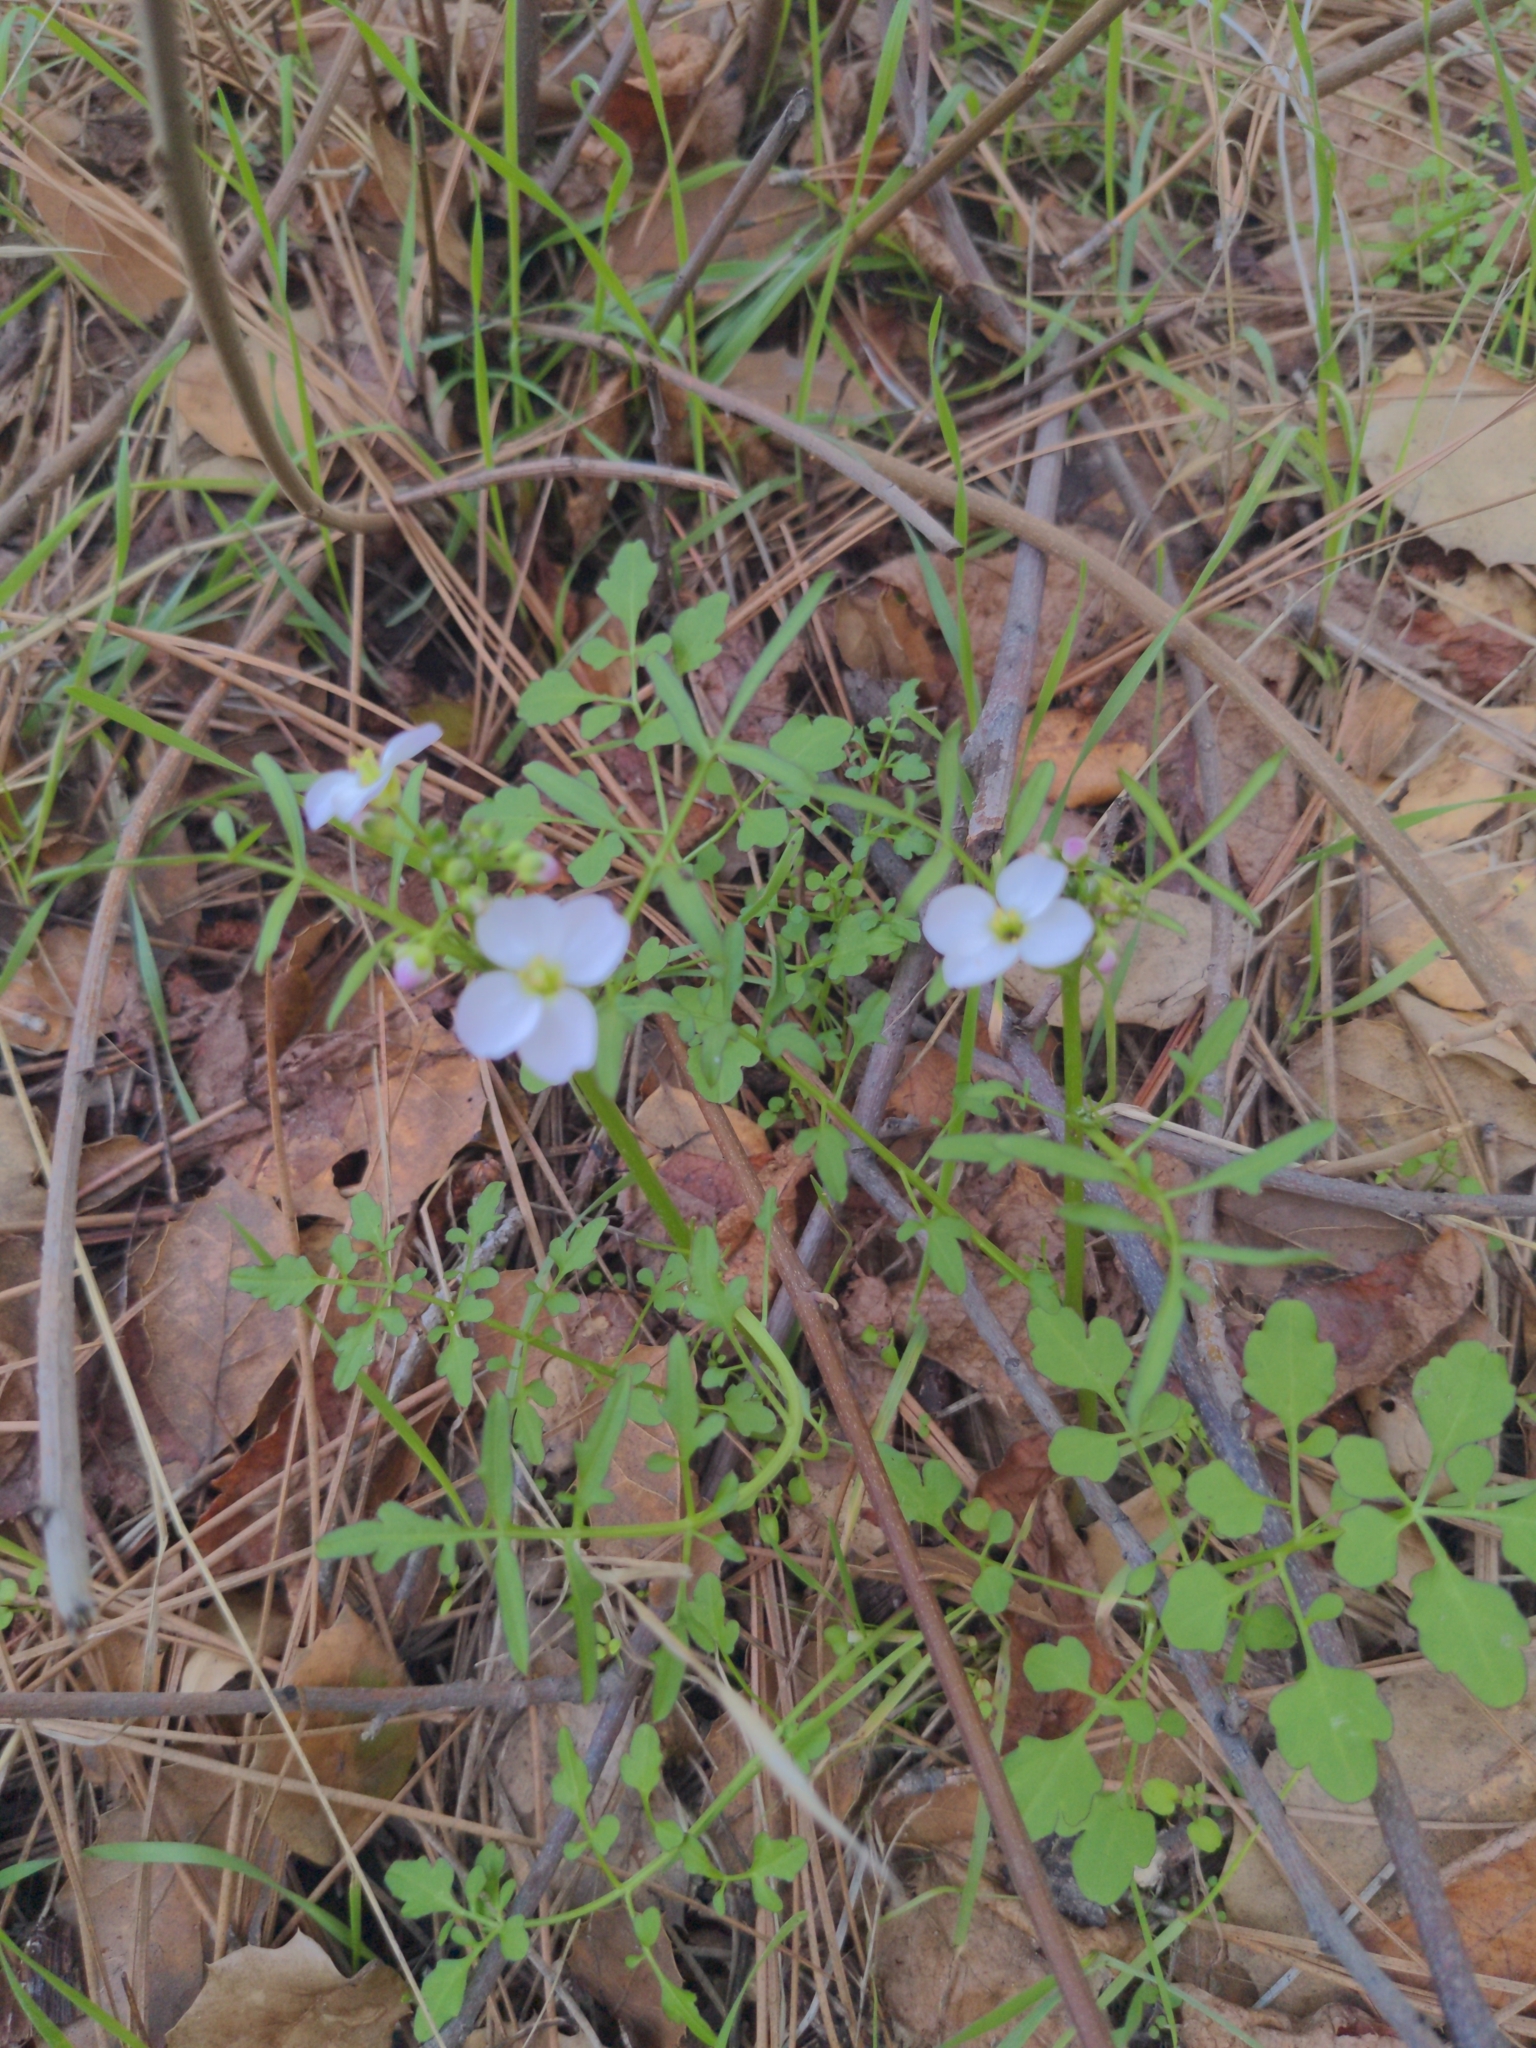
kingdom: Plantae
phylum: Tracheophyta
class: Magnoliopsida
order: Brassicales
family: Brassicaceae
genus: Cardamine
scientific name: Cardamine californica
